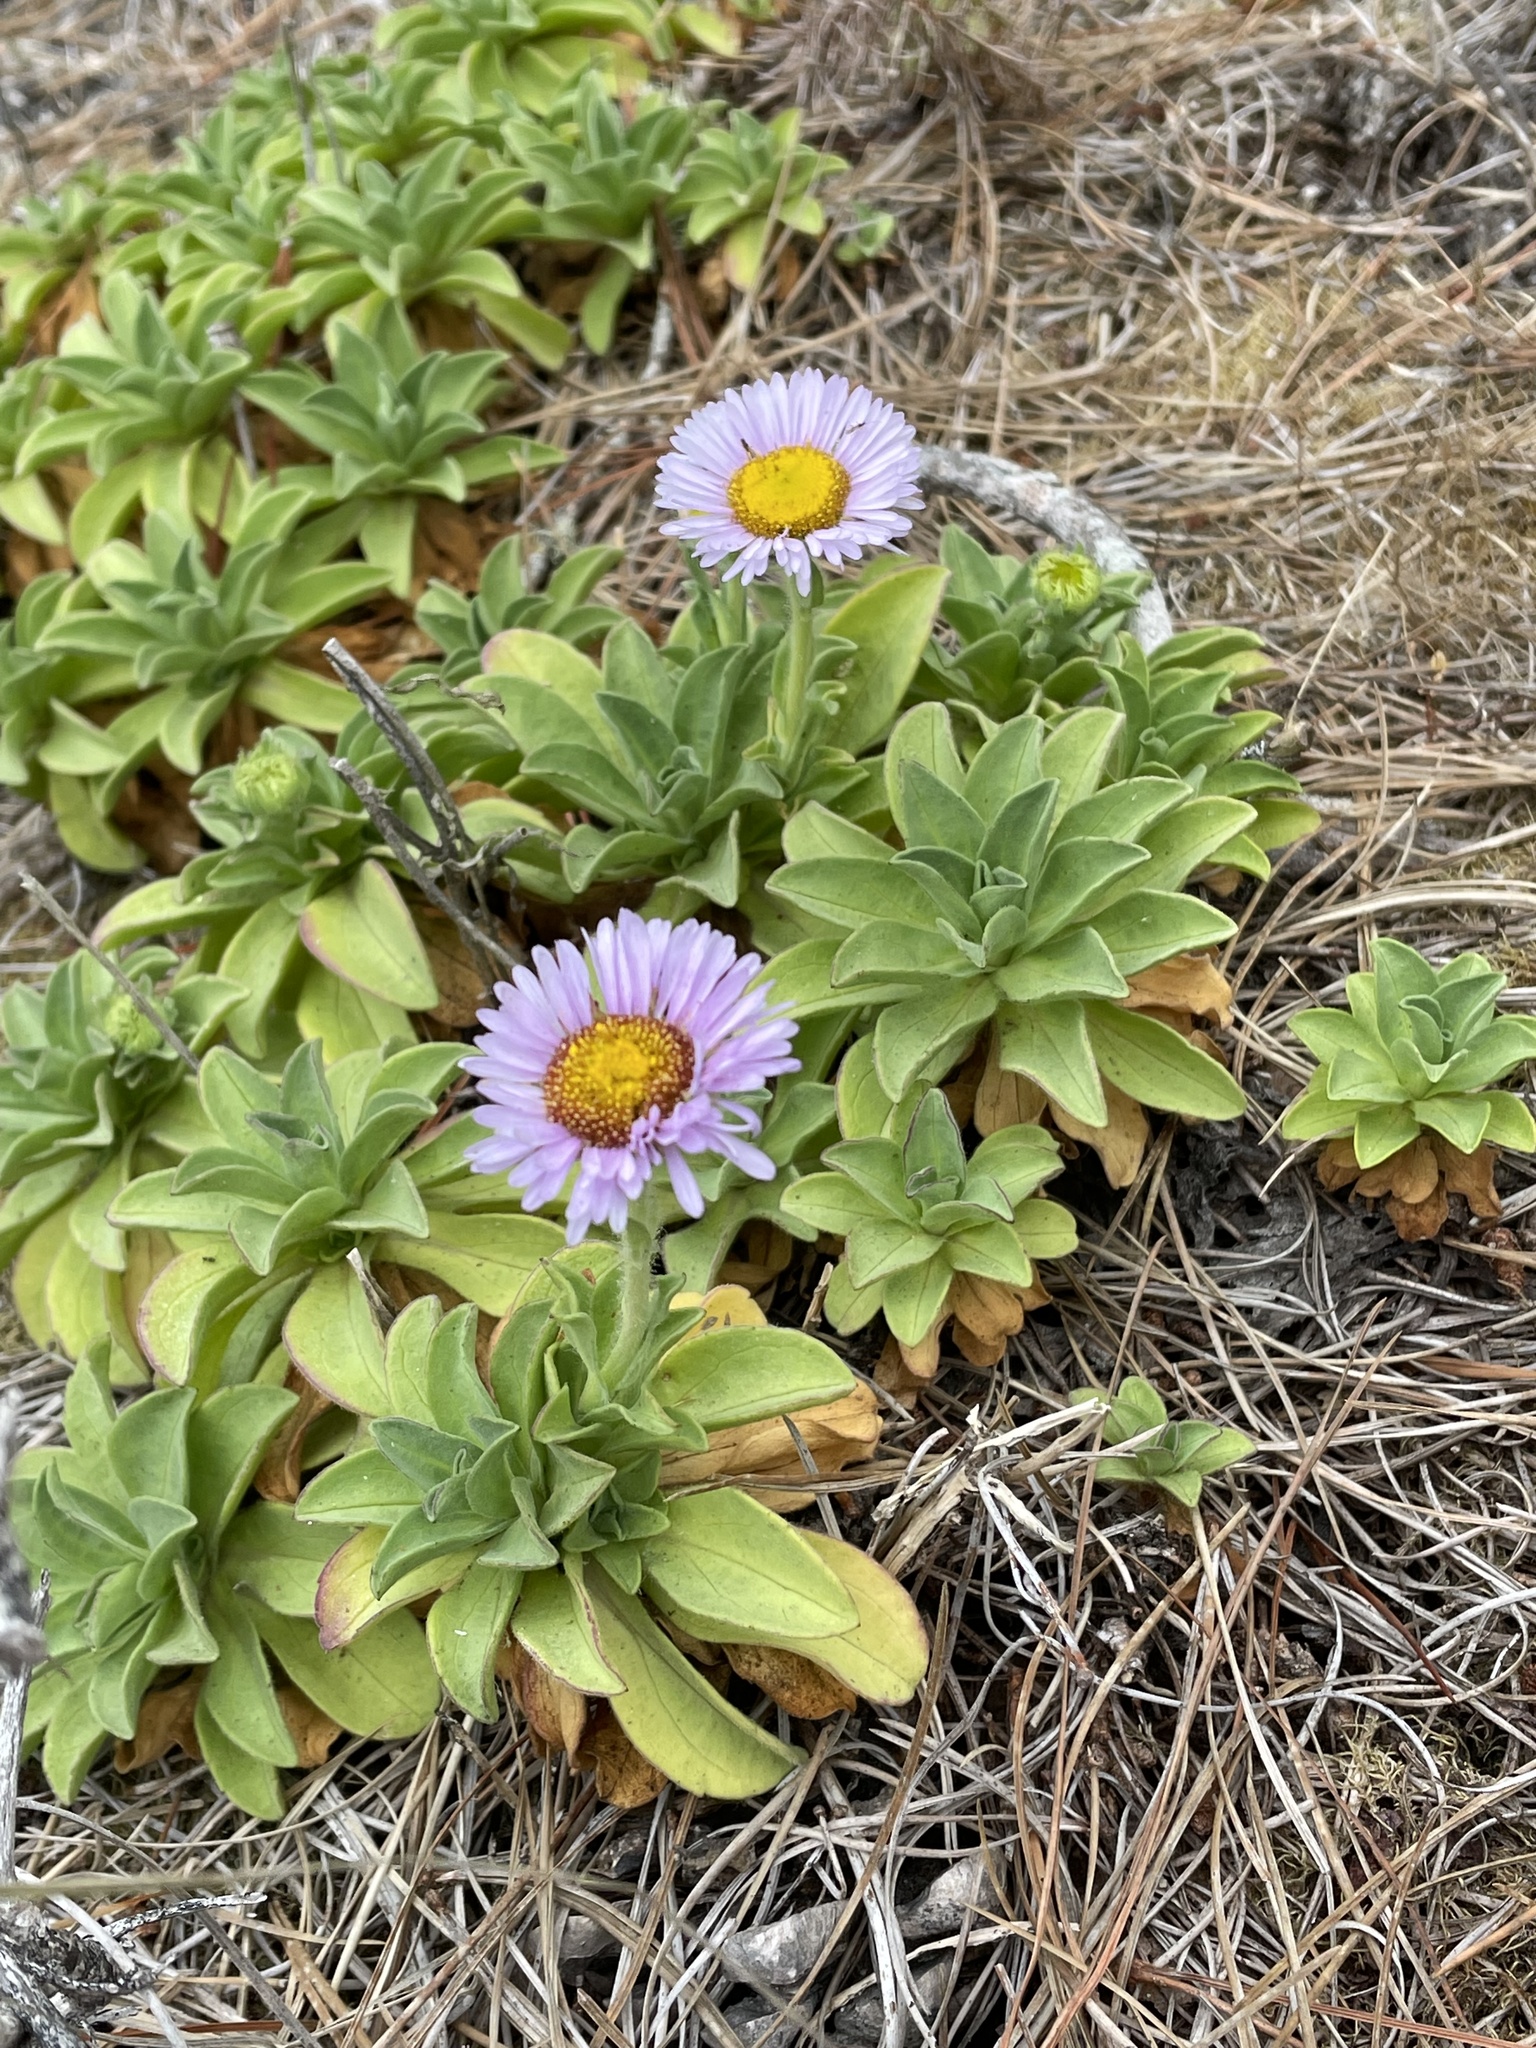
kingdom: Plantae
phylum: Tracheophyta
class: Magnoliopsida
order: Asterales
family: Asteraceae
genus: Erigeron
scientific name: Erigeron glaucus
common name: Seaside daisy
